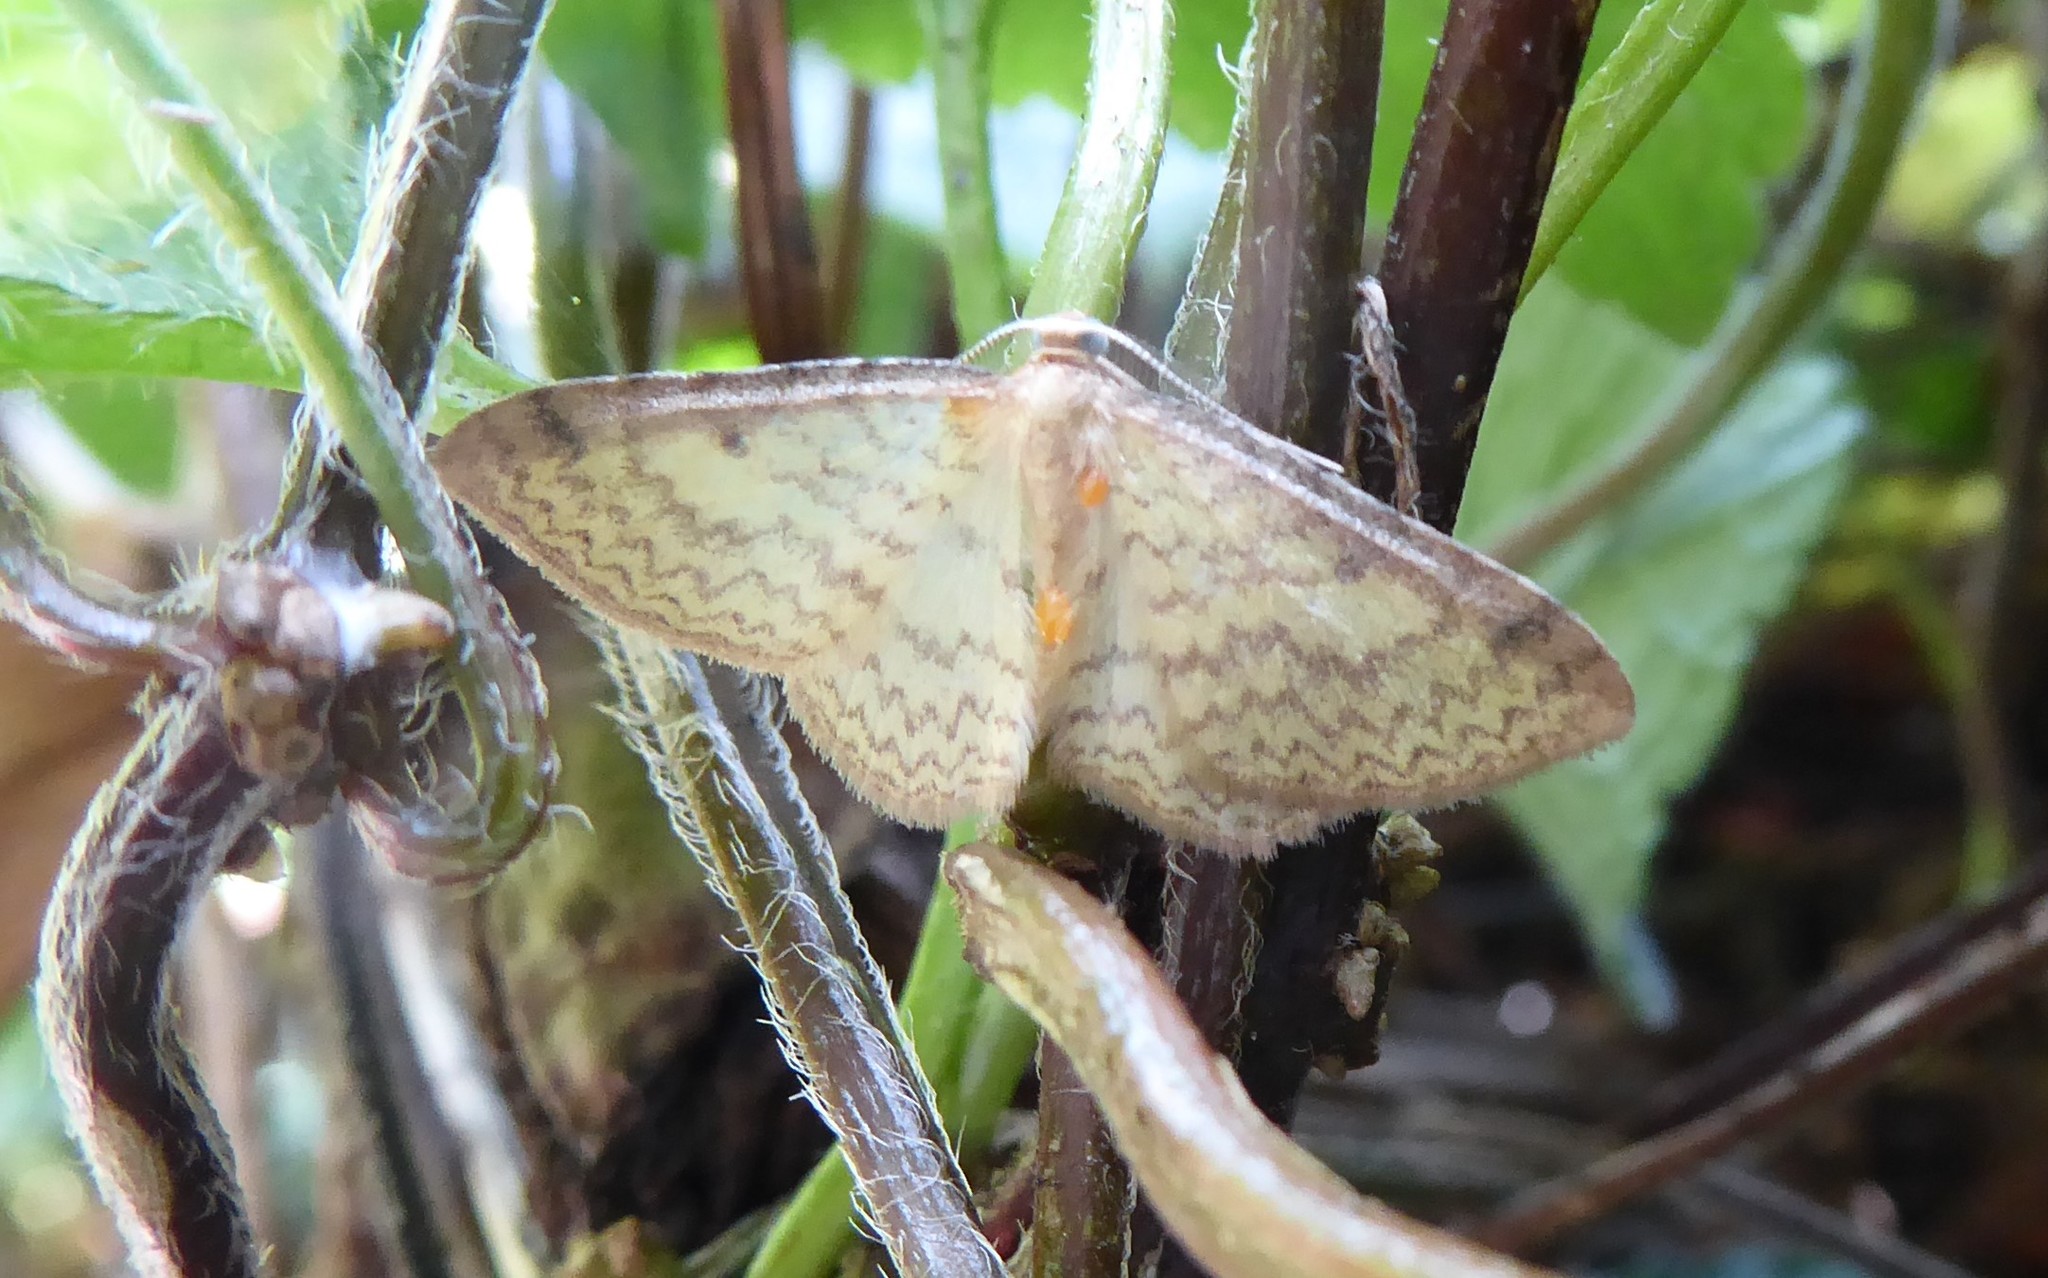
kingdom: Animalia
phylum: Arthropoda
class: Insecta
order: Lepidoptera
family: Geometridae
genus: Epiphryne
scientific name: Epiphryne undosata
